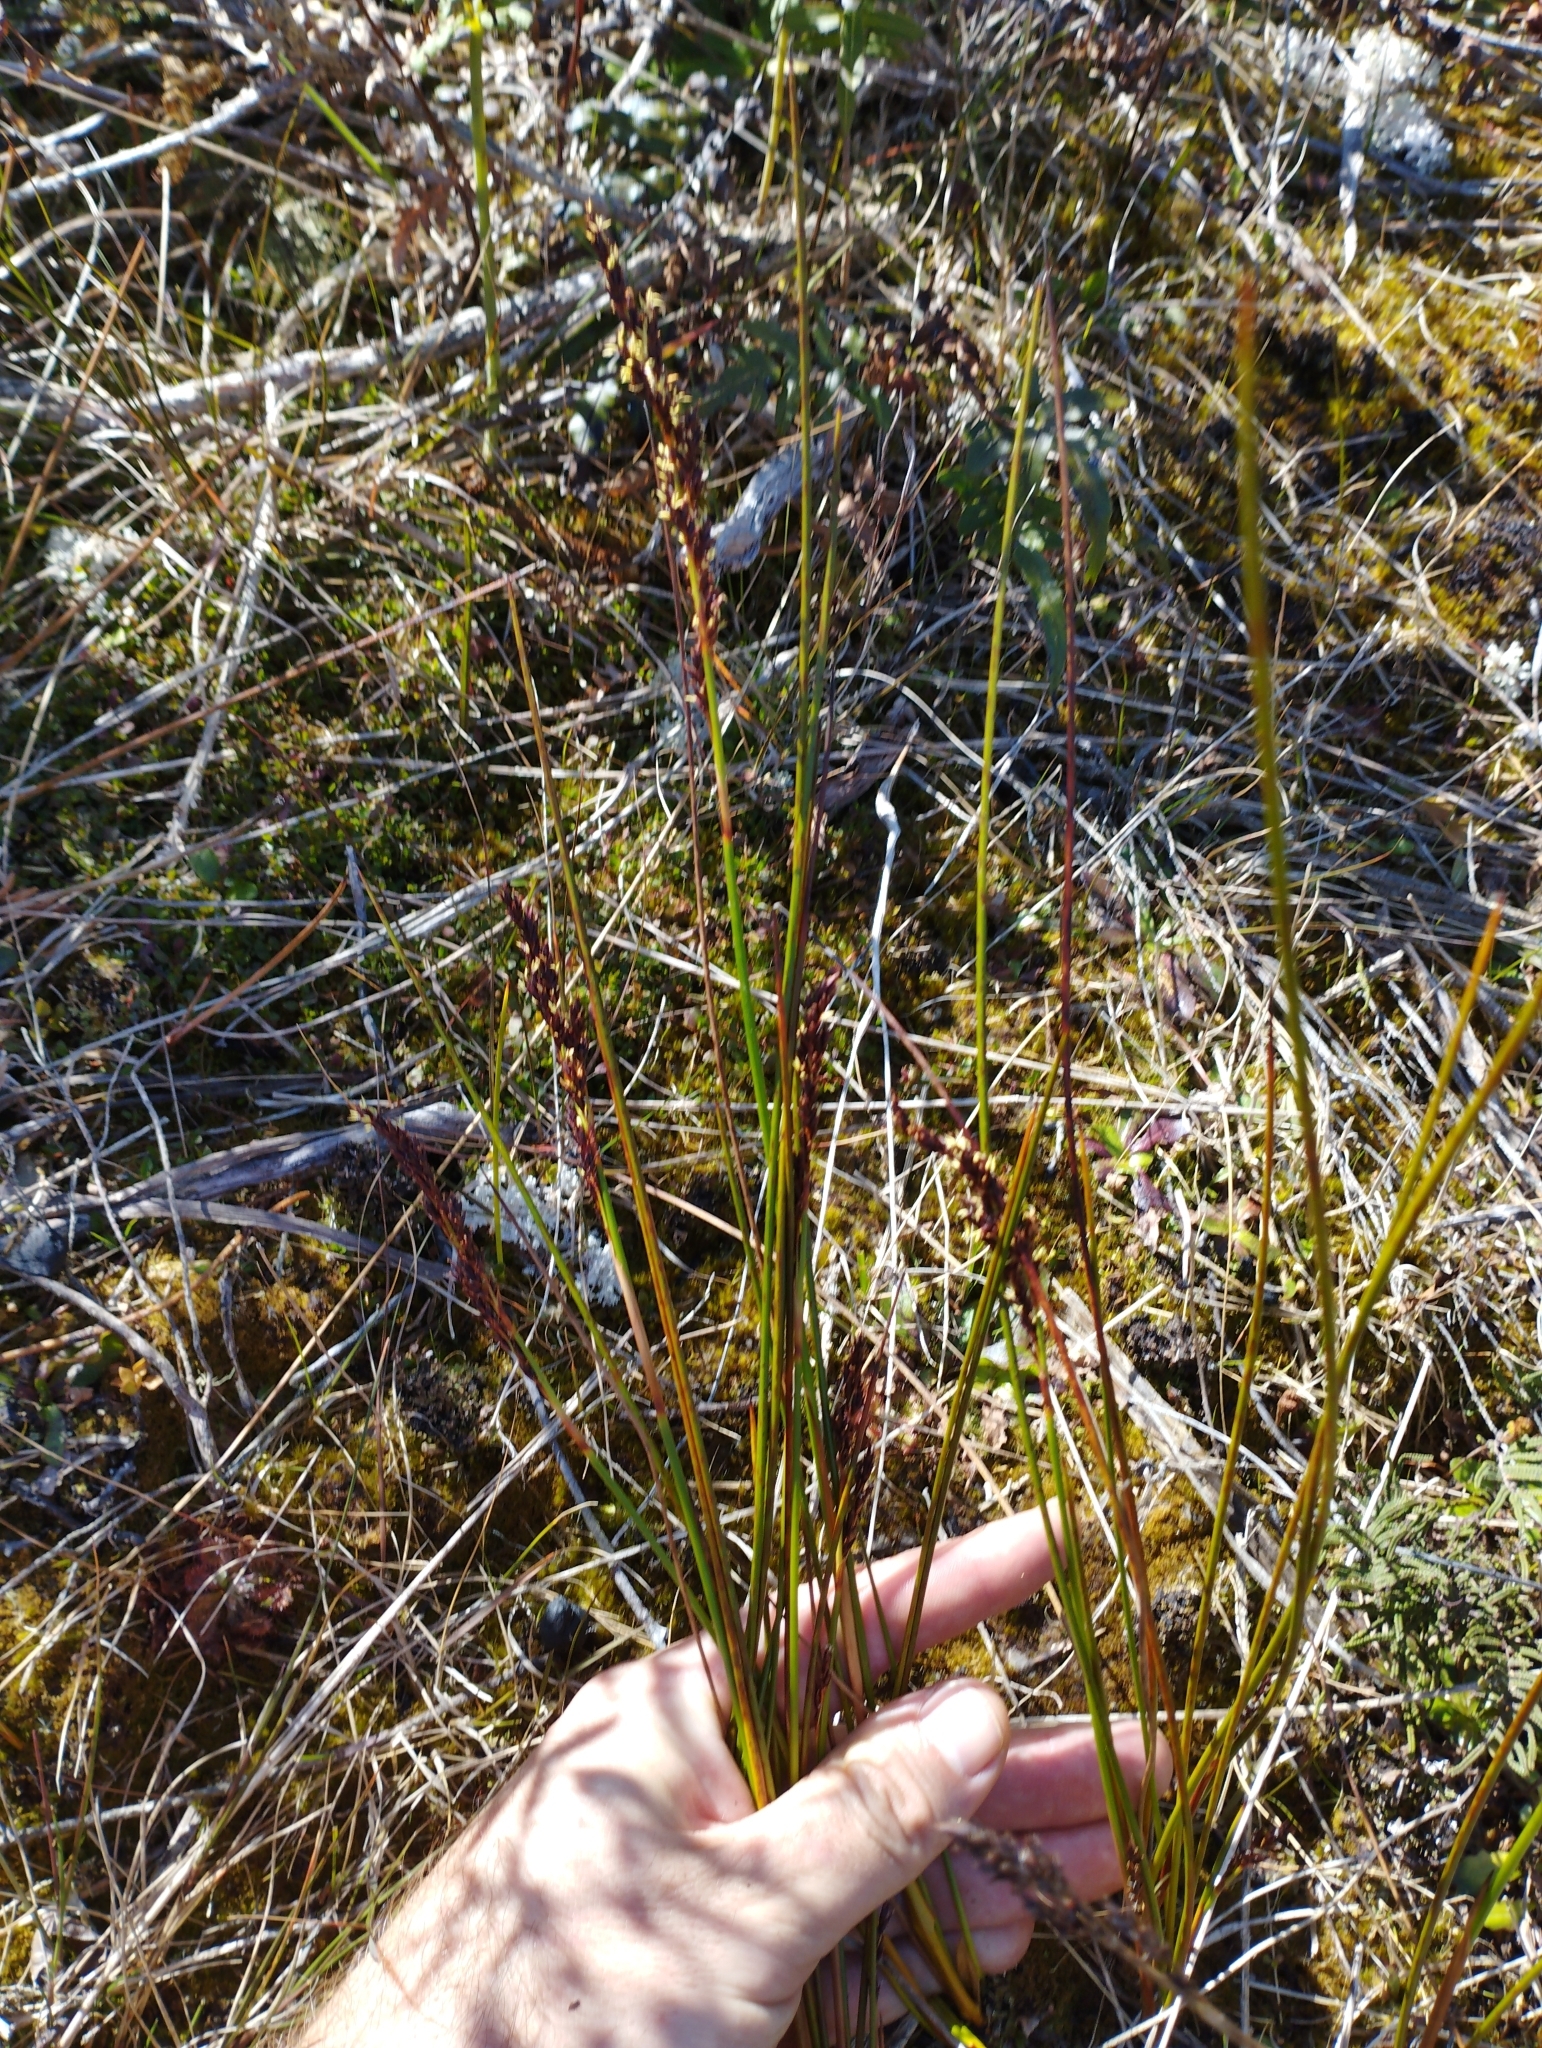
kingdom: Plantae
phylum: Tracheophyta
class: Liliopsida
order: Poales
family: Cyperaceae
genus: Machaerina
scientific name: Machaerina teretifolia
